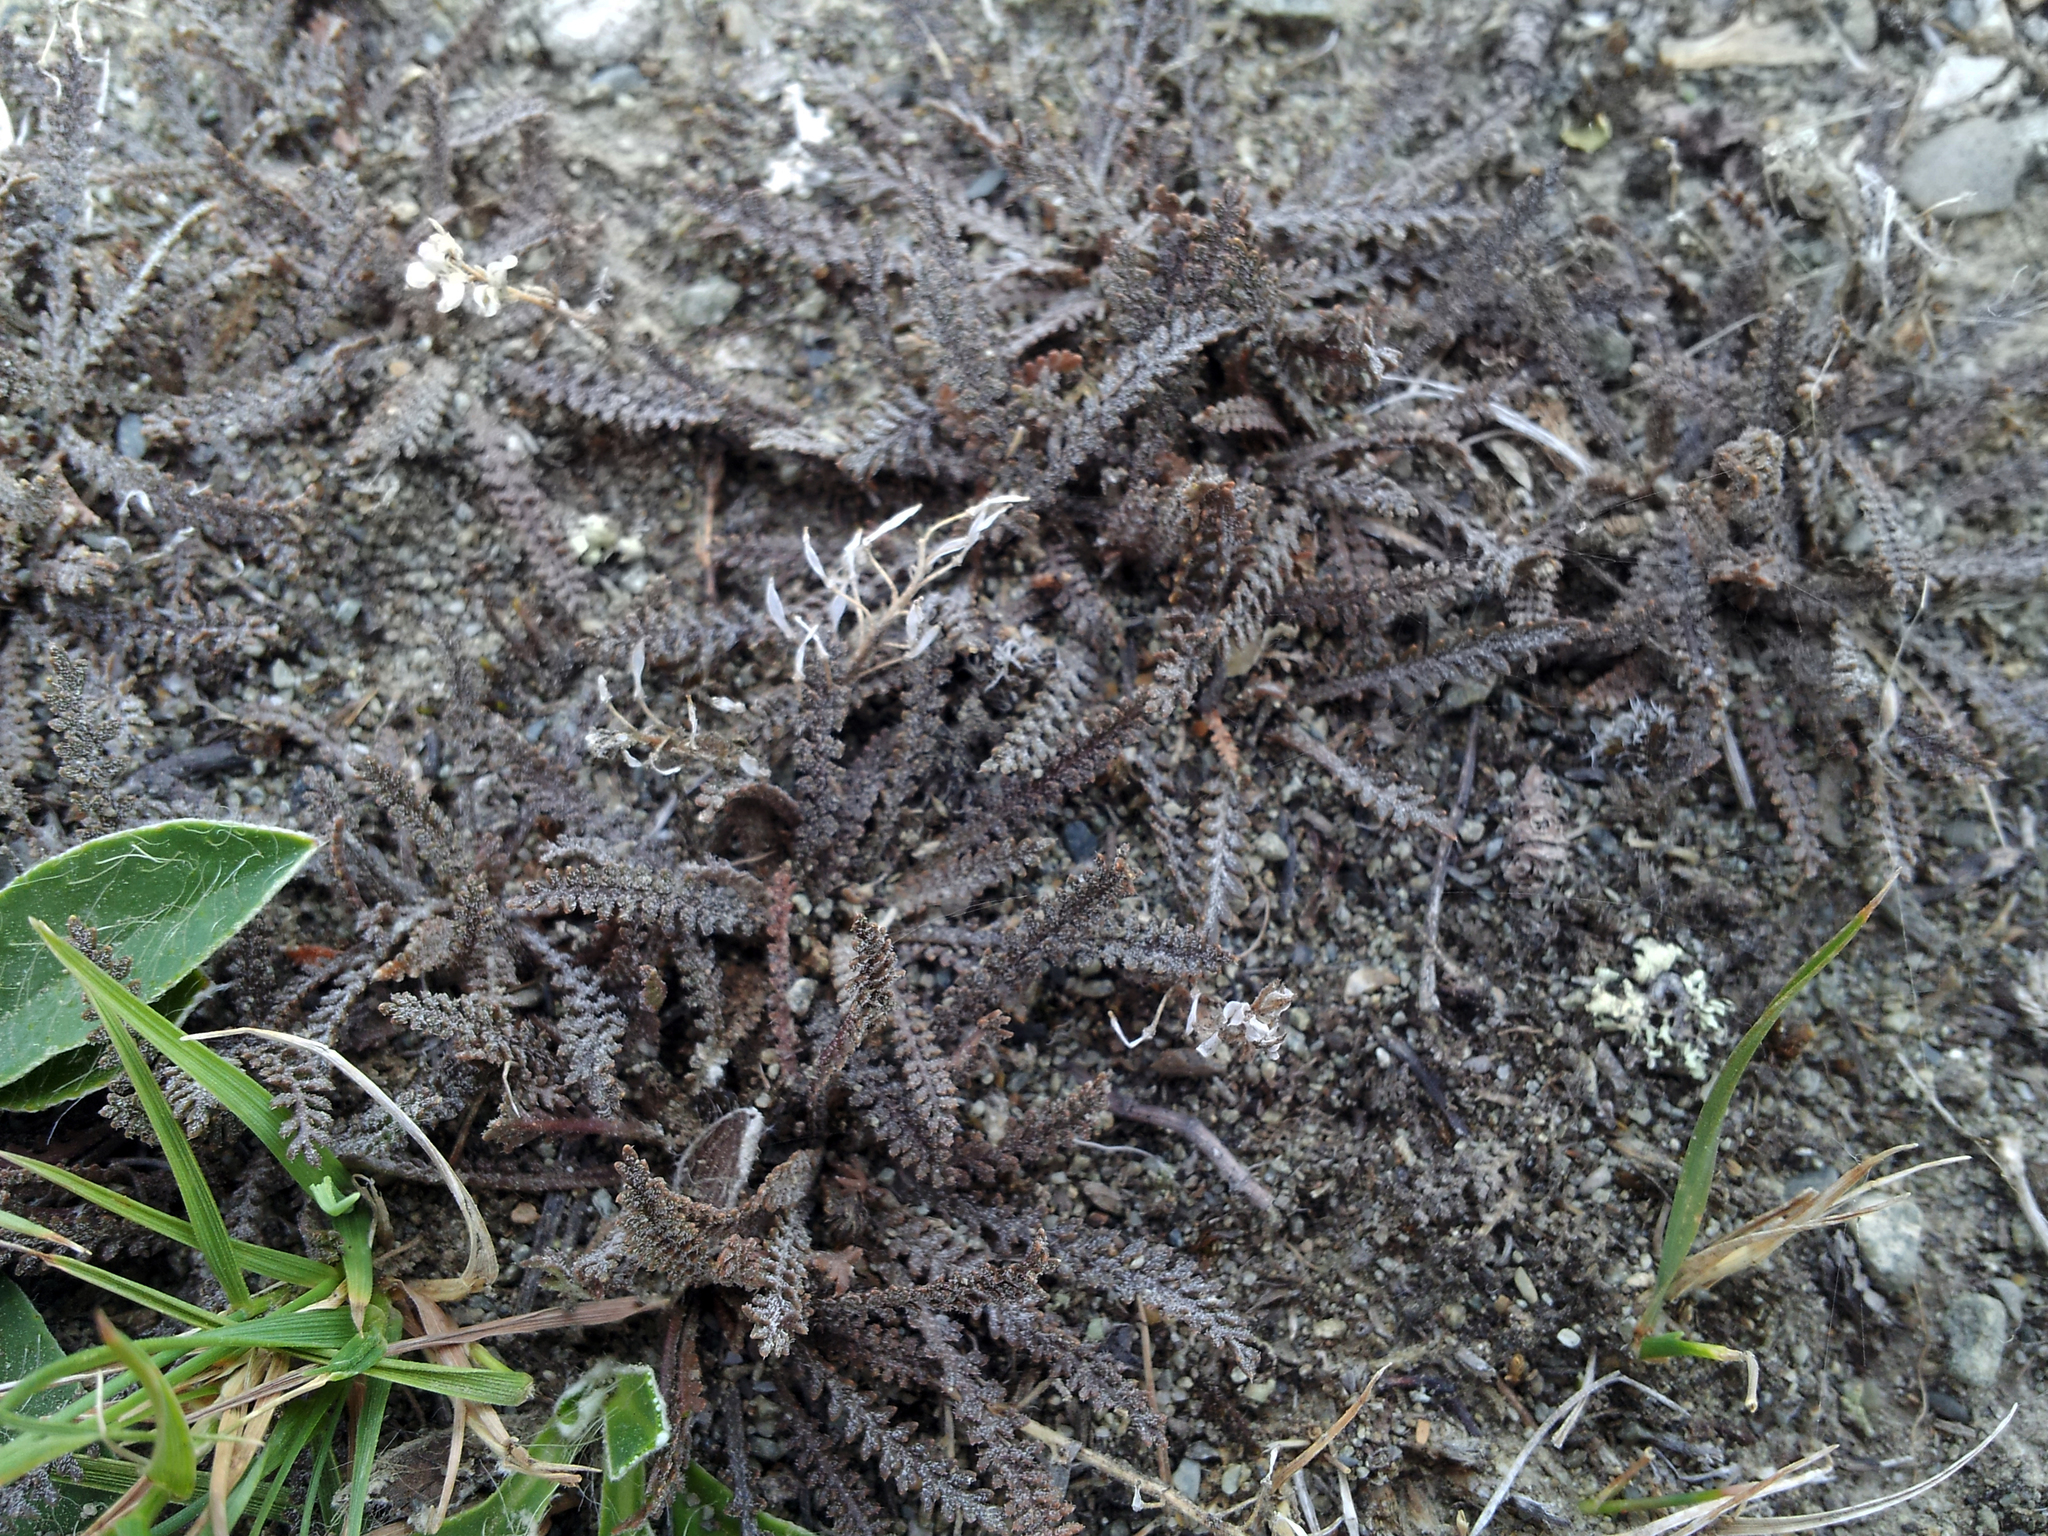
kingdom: Plantae
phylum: Tracheophyta
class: Magnoliopsida
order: Brassicales
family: Brassicaceae
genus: Lepidium
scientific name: Lepidium sisymbrioides
